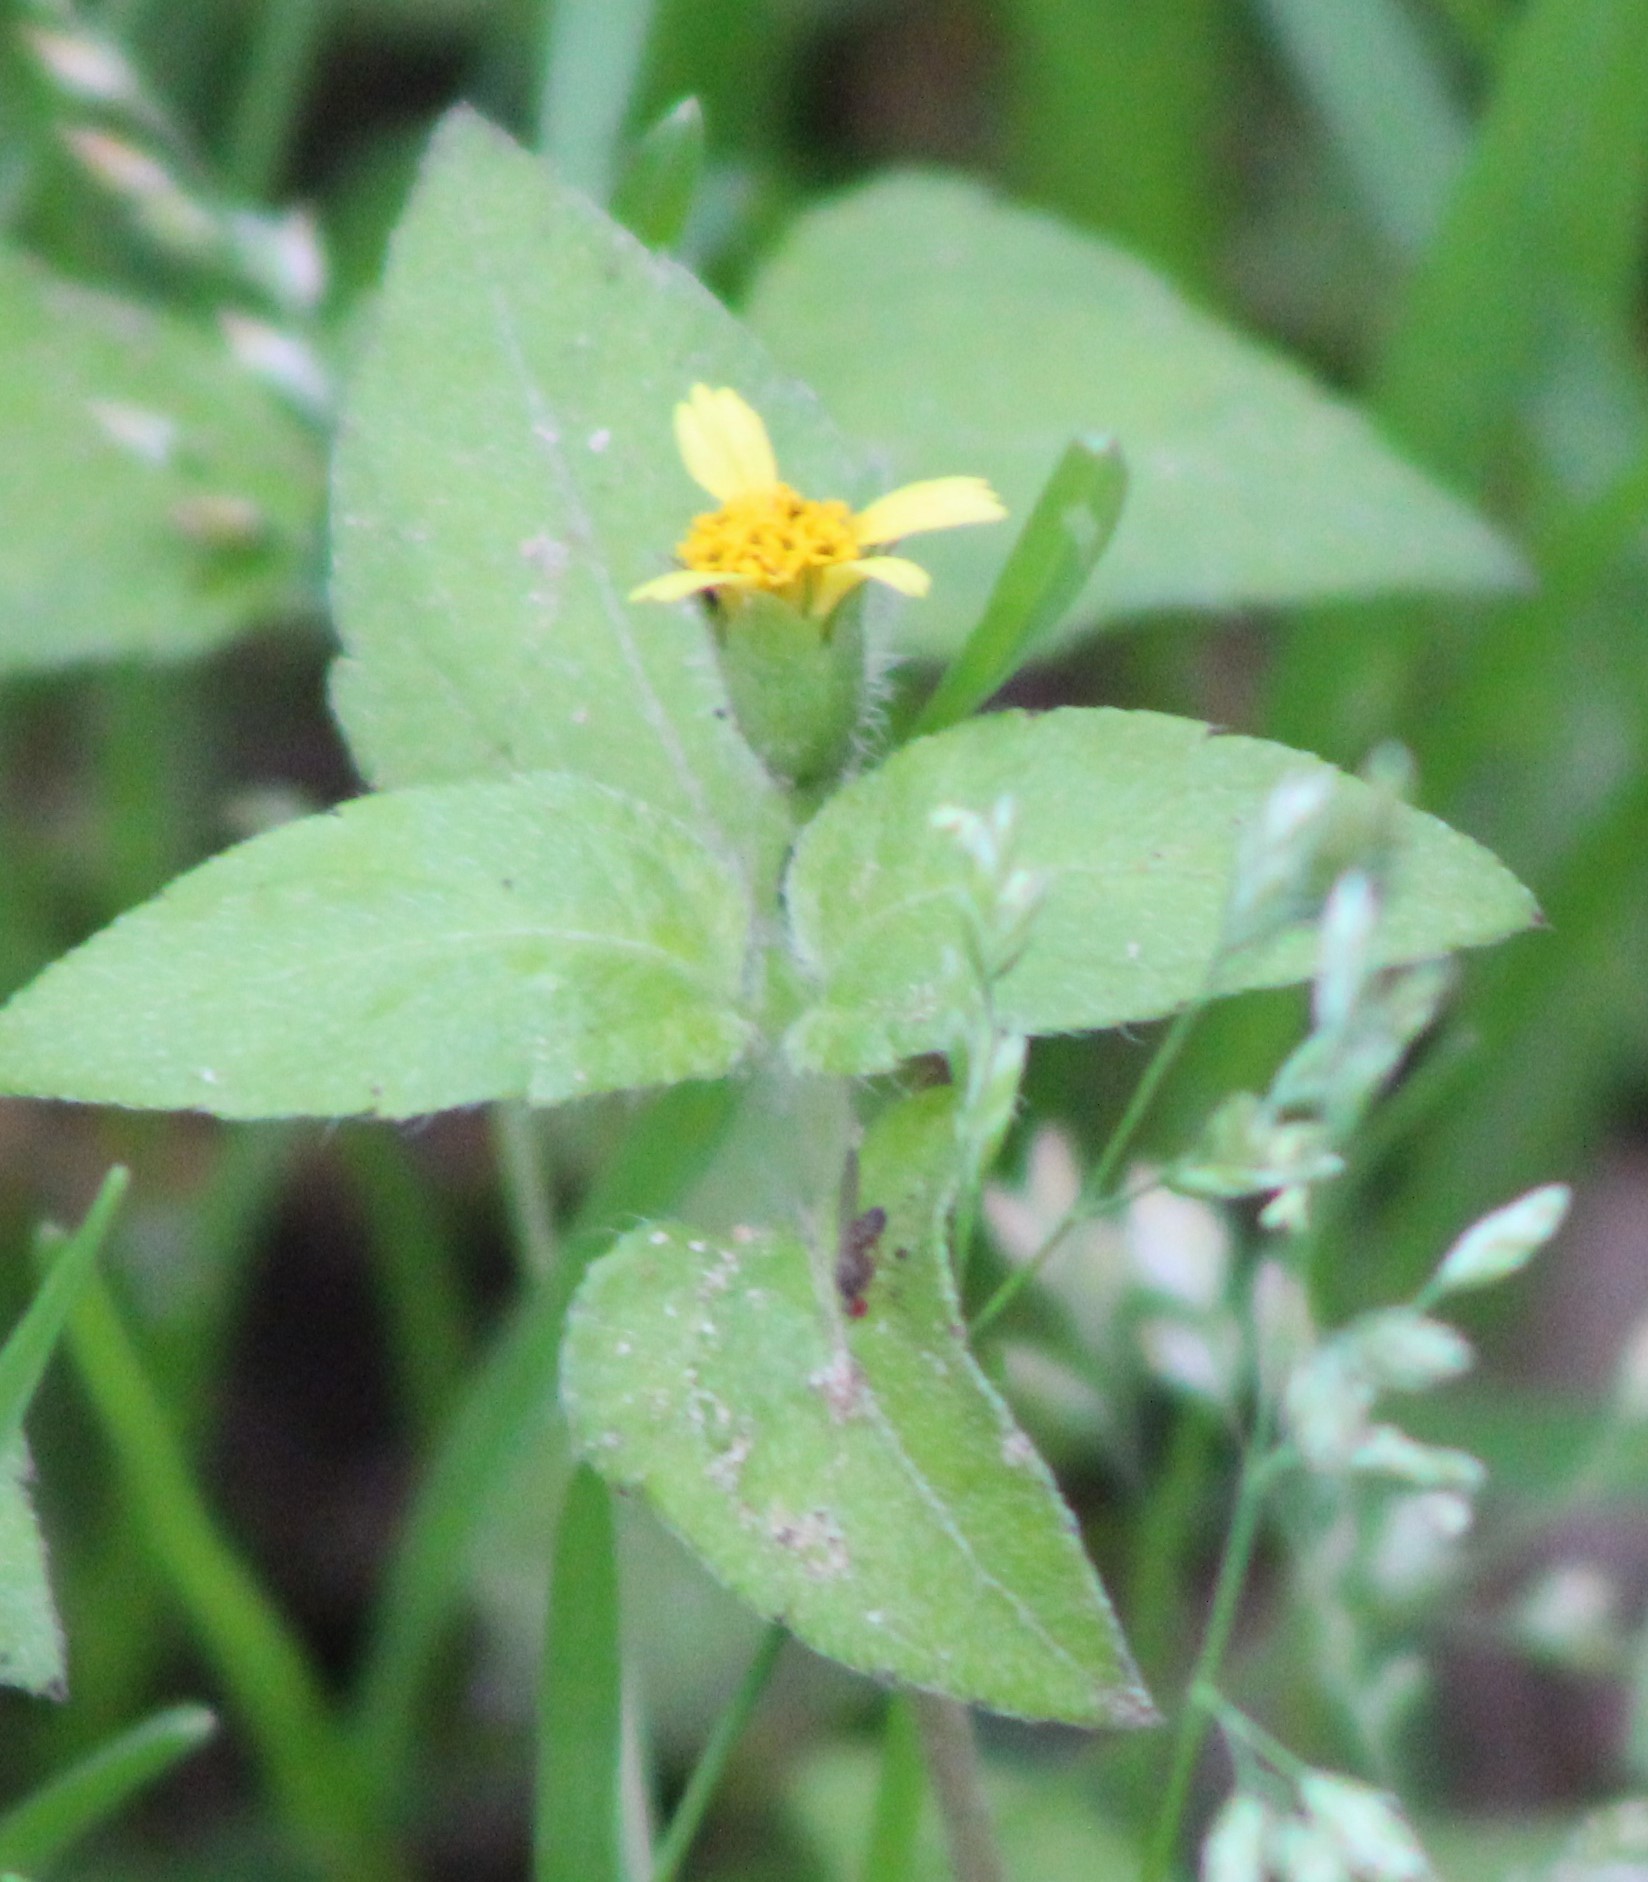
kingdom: Plantae
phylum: Tracheophyta
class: Magnoliopsida
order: Asterales
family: Asteraceae
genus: Calyptocarpus
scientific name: Calyptocarpus vialis
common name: Straggler daisy
